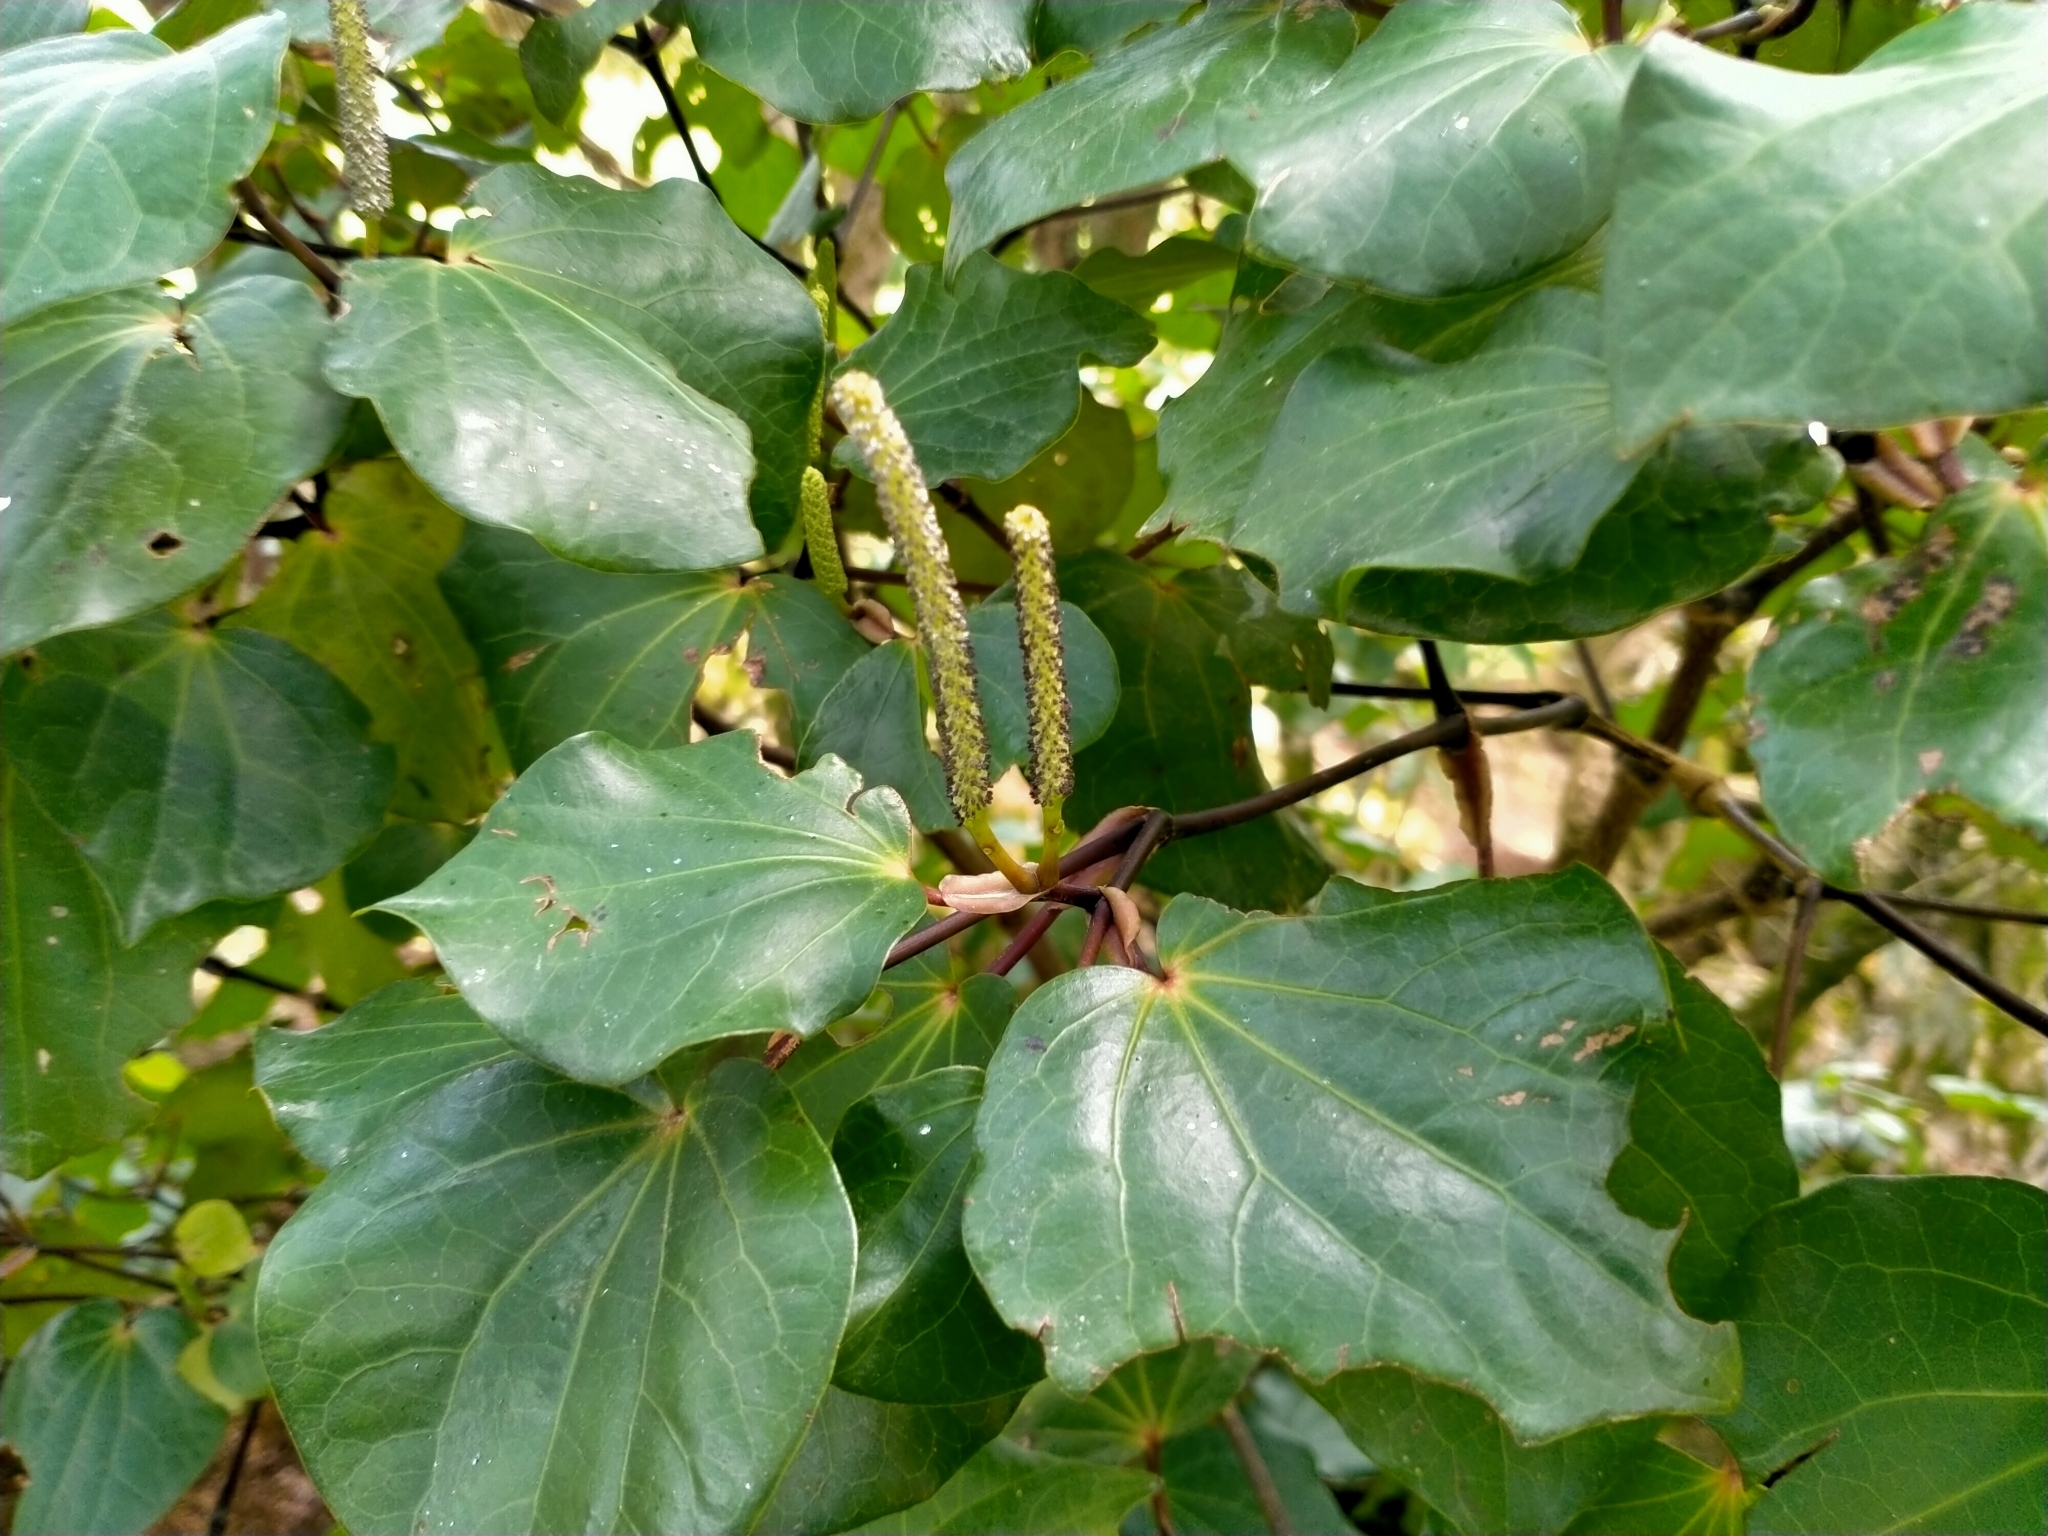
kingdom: Plantae
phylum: Tracheophyta
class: Magnoliopsida
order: Piperales
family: Piperaceae
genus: Macropiper
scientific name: Macropiper excelsum
